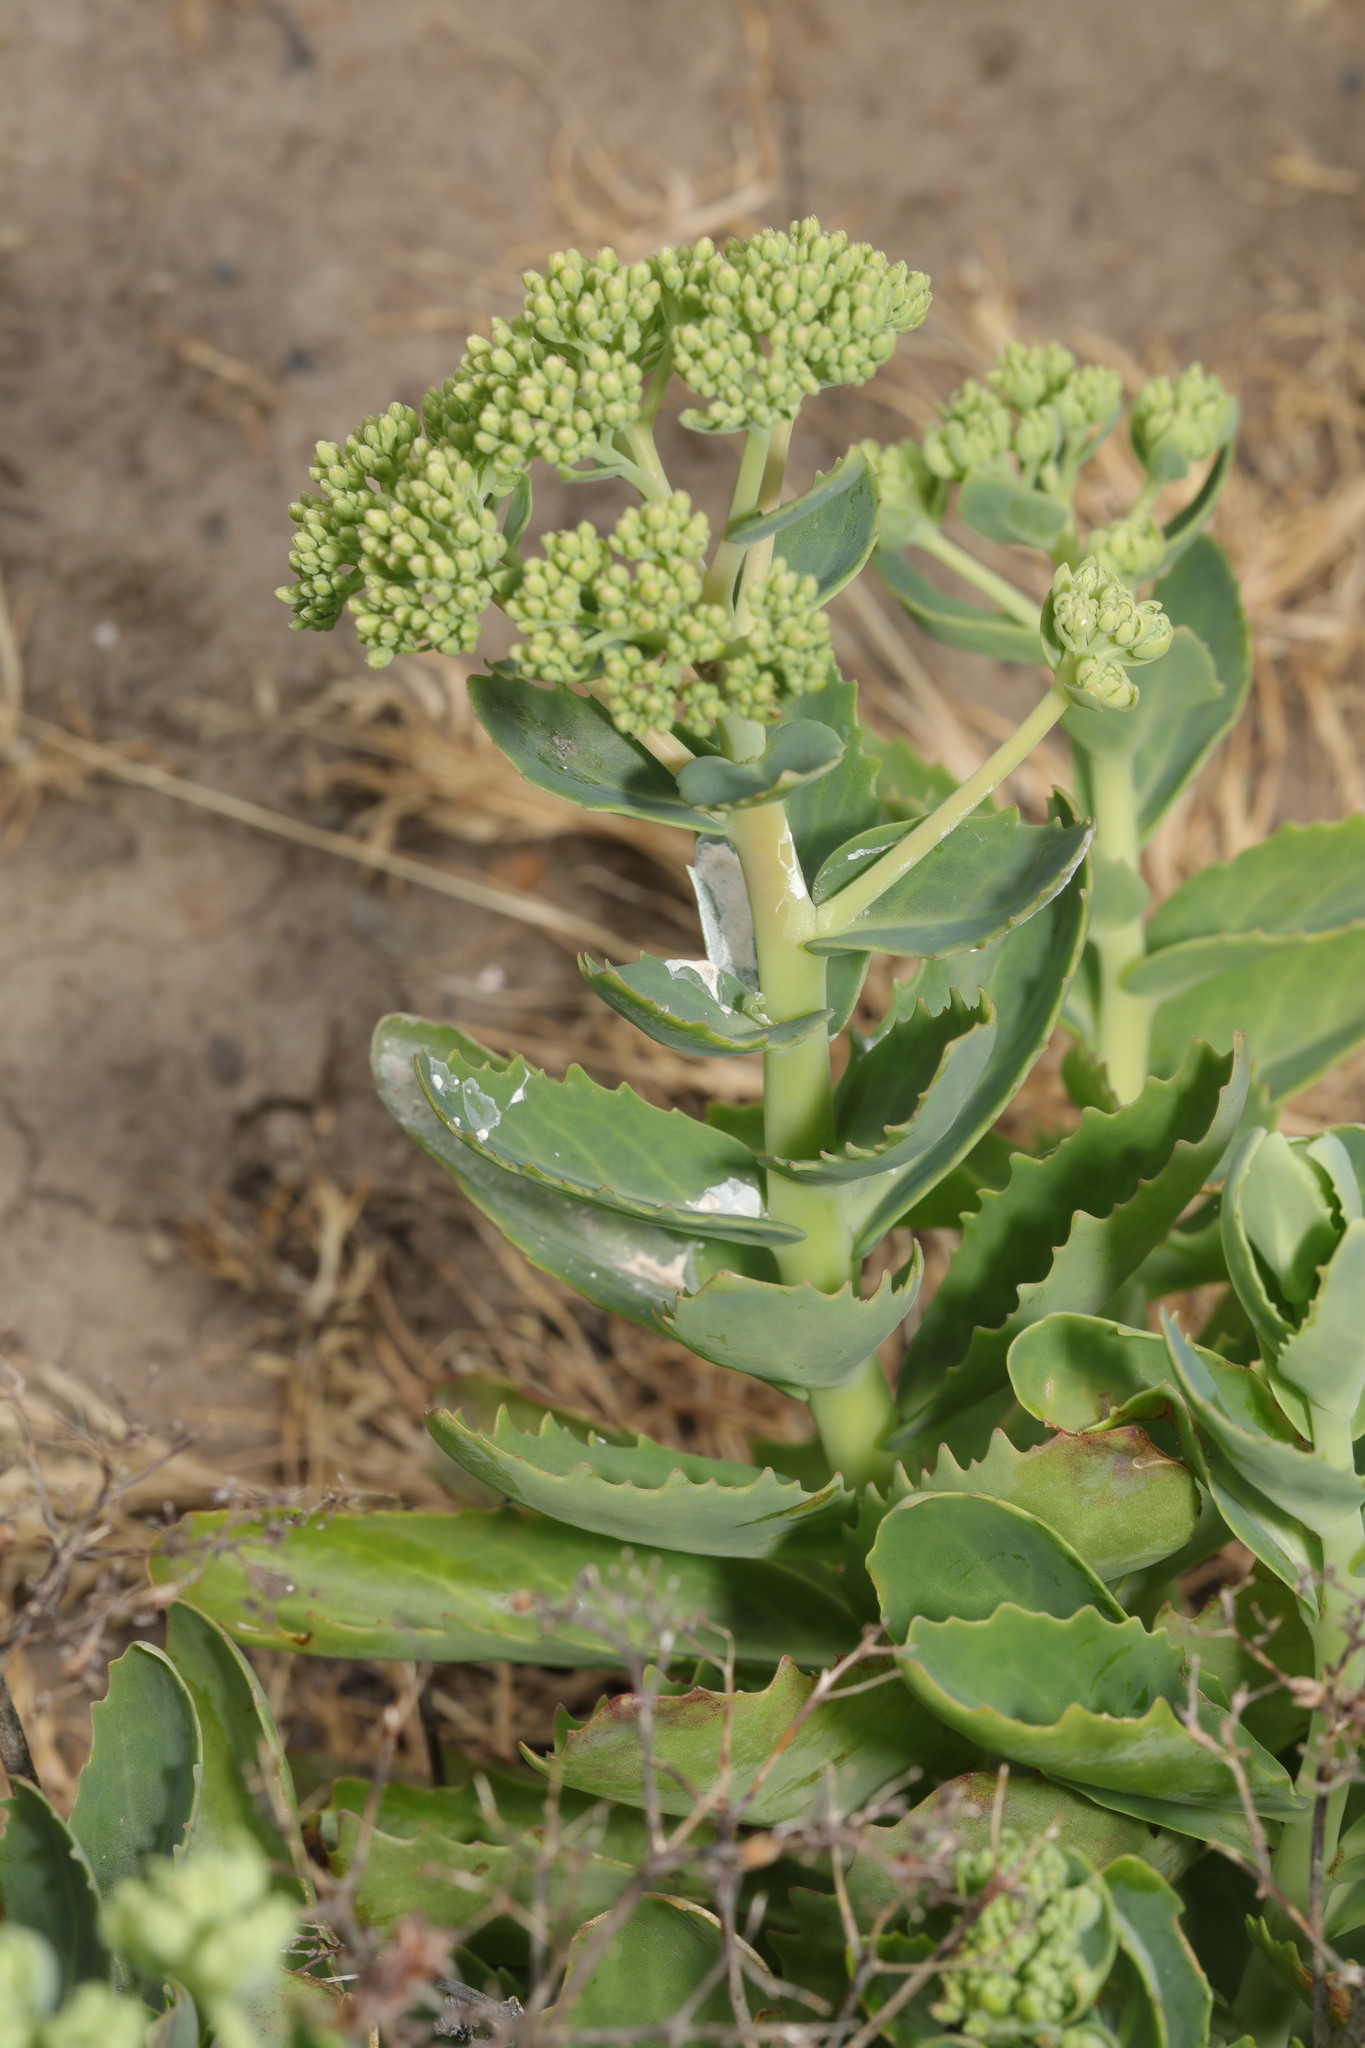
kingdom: Plantae
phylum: Tracheophyta
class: Magnoliopsida
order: Saxifragales
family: Crassulaceae
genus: Hylotelephium
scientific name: Hylotelephium
